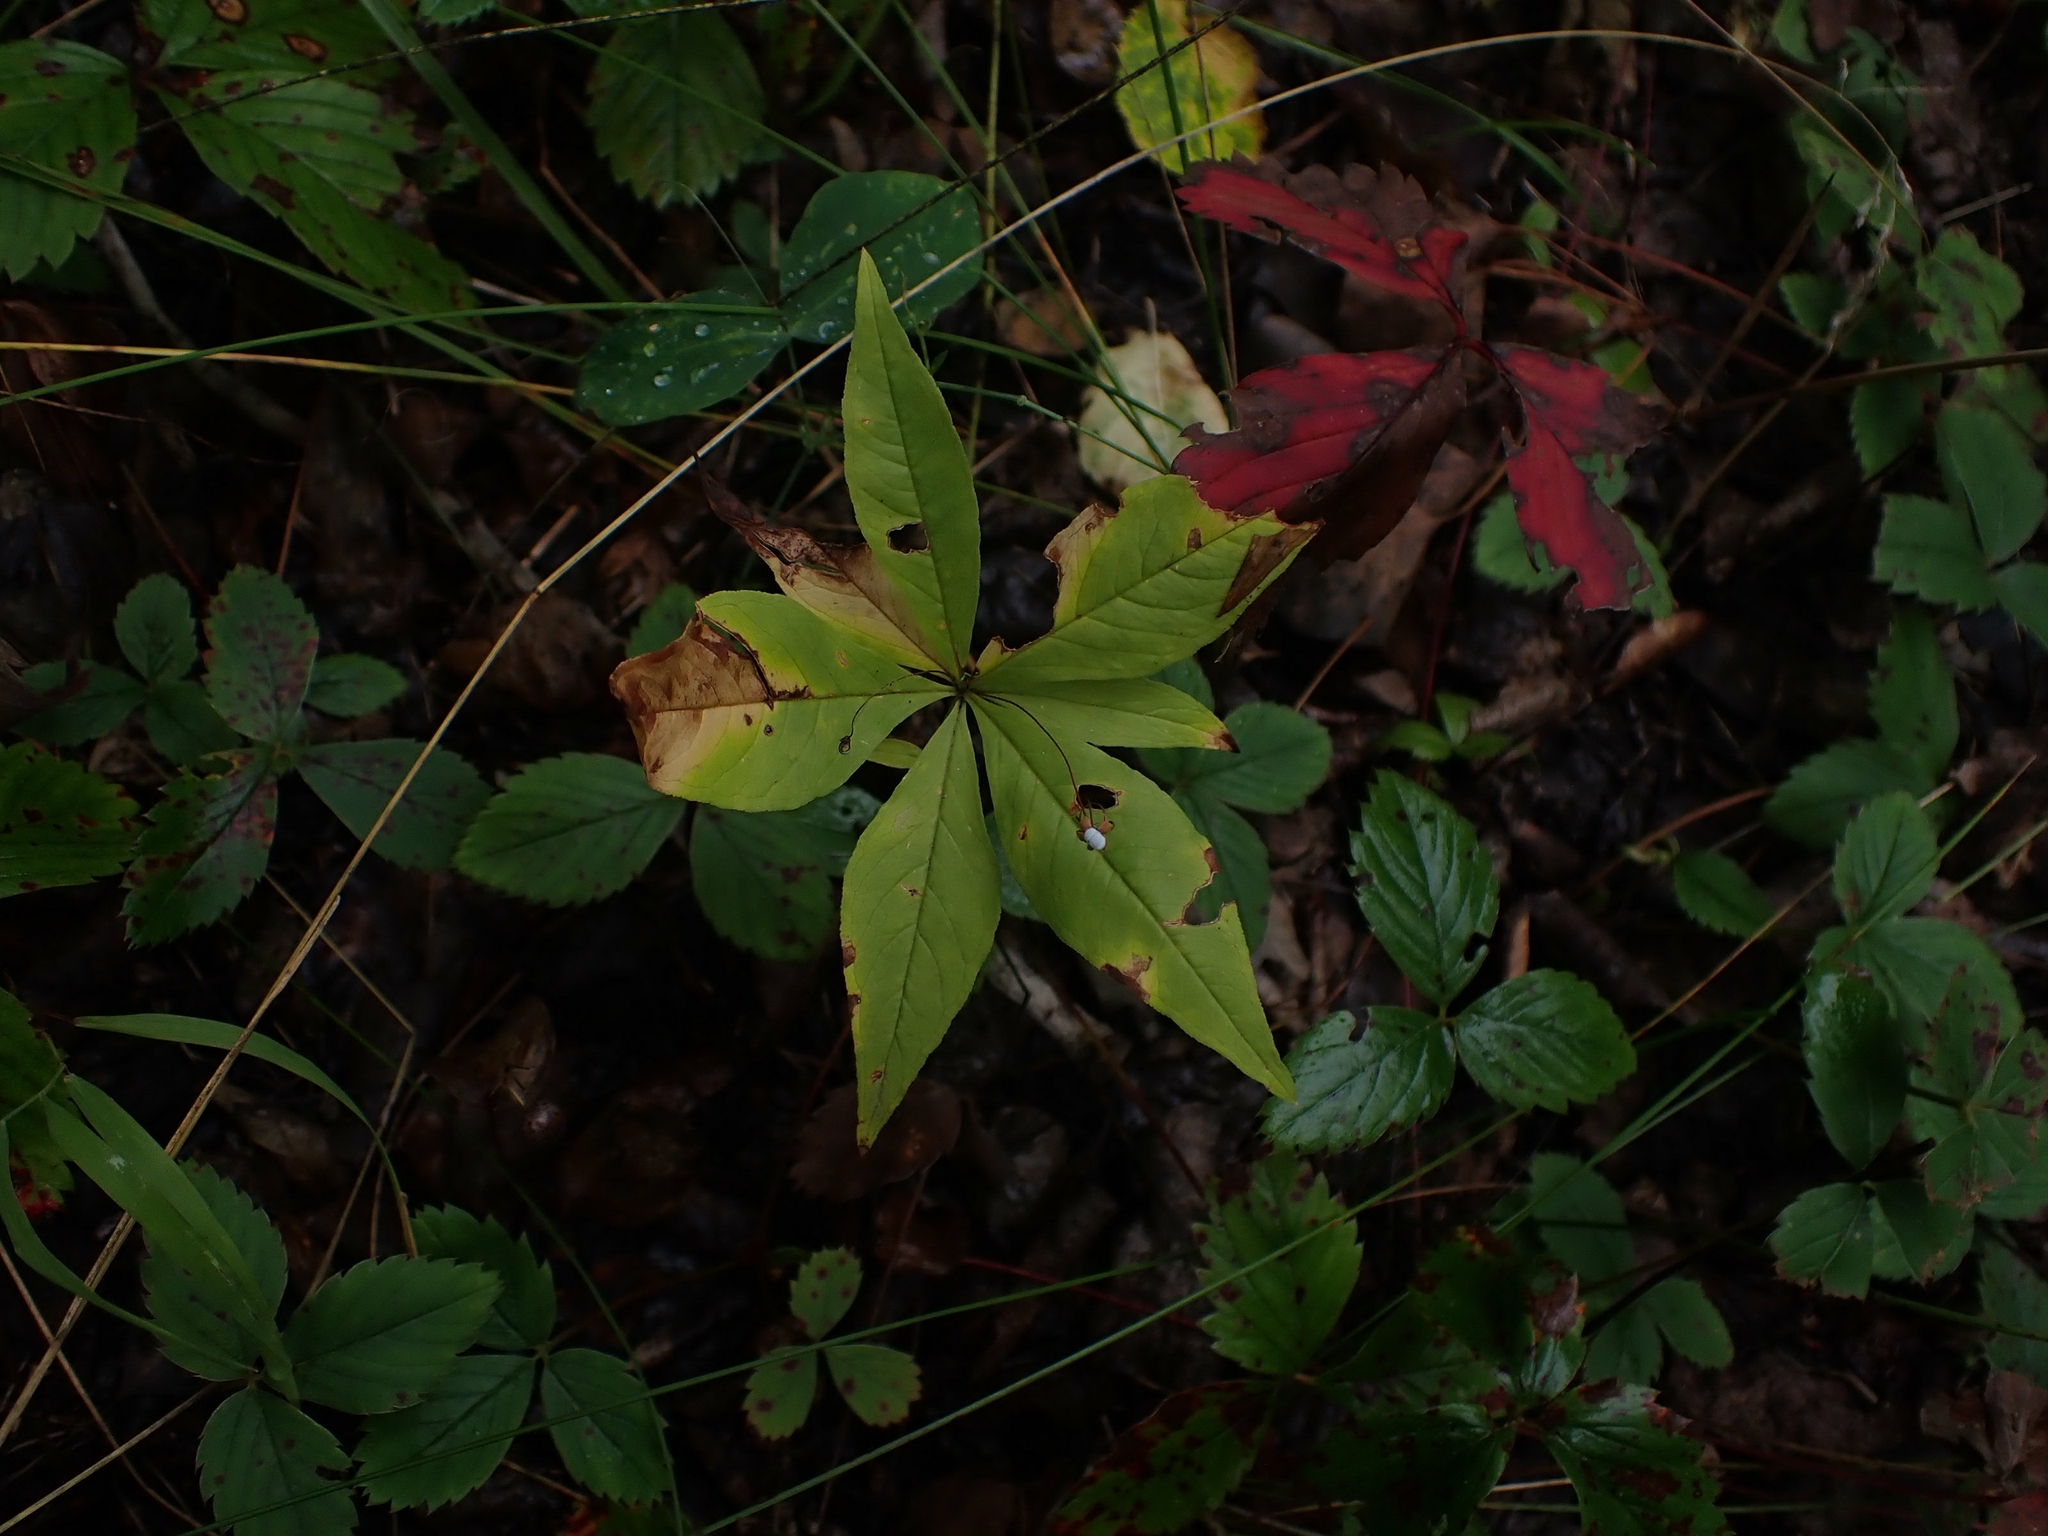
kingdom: Plantae
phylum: Tracheophyta
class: Magnoliopsida
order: Ericales
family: Primulaceae
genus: Lysimachia
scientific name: Lysimachia borealis
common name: American starflower
